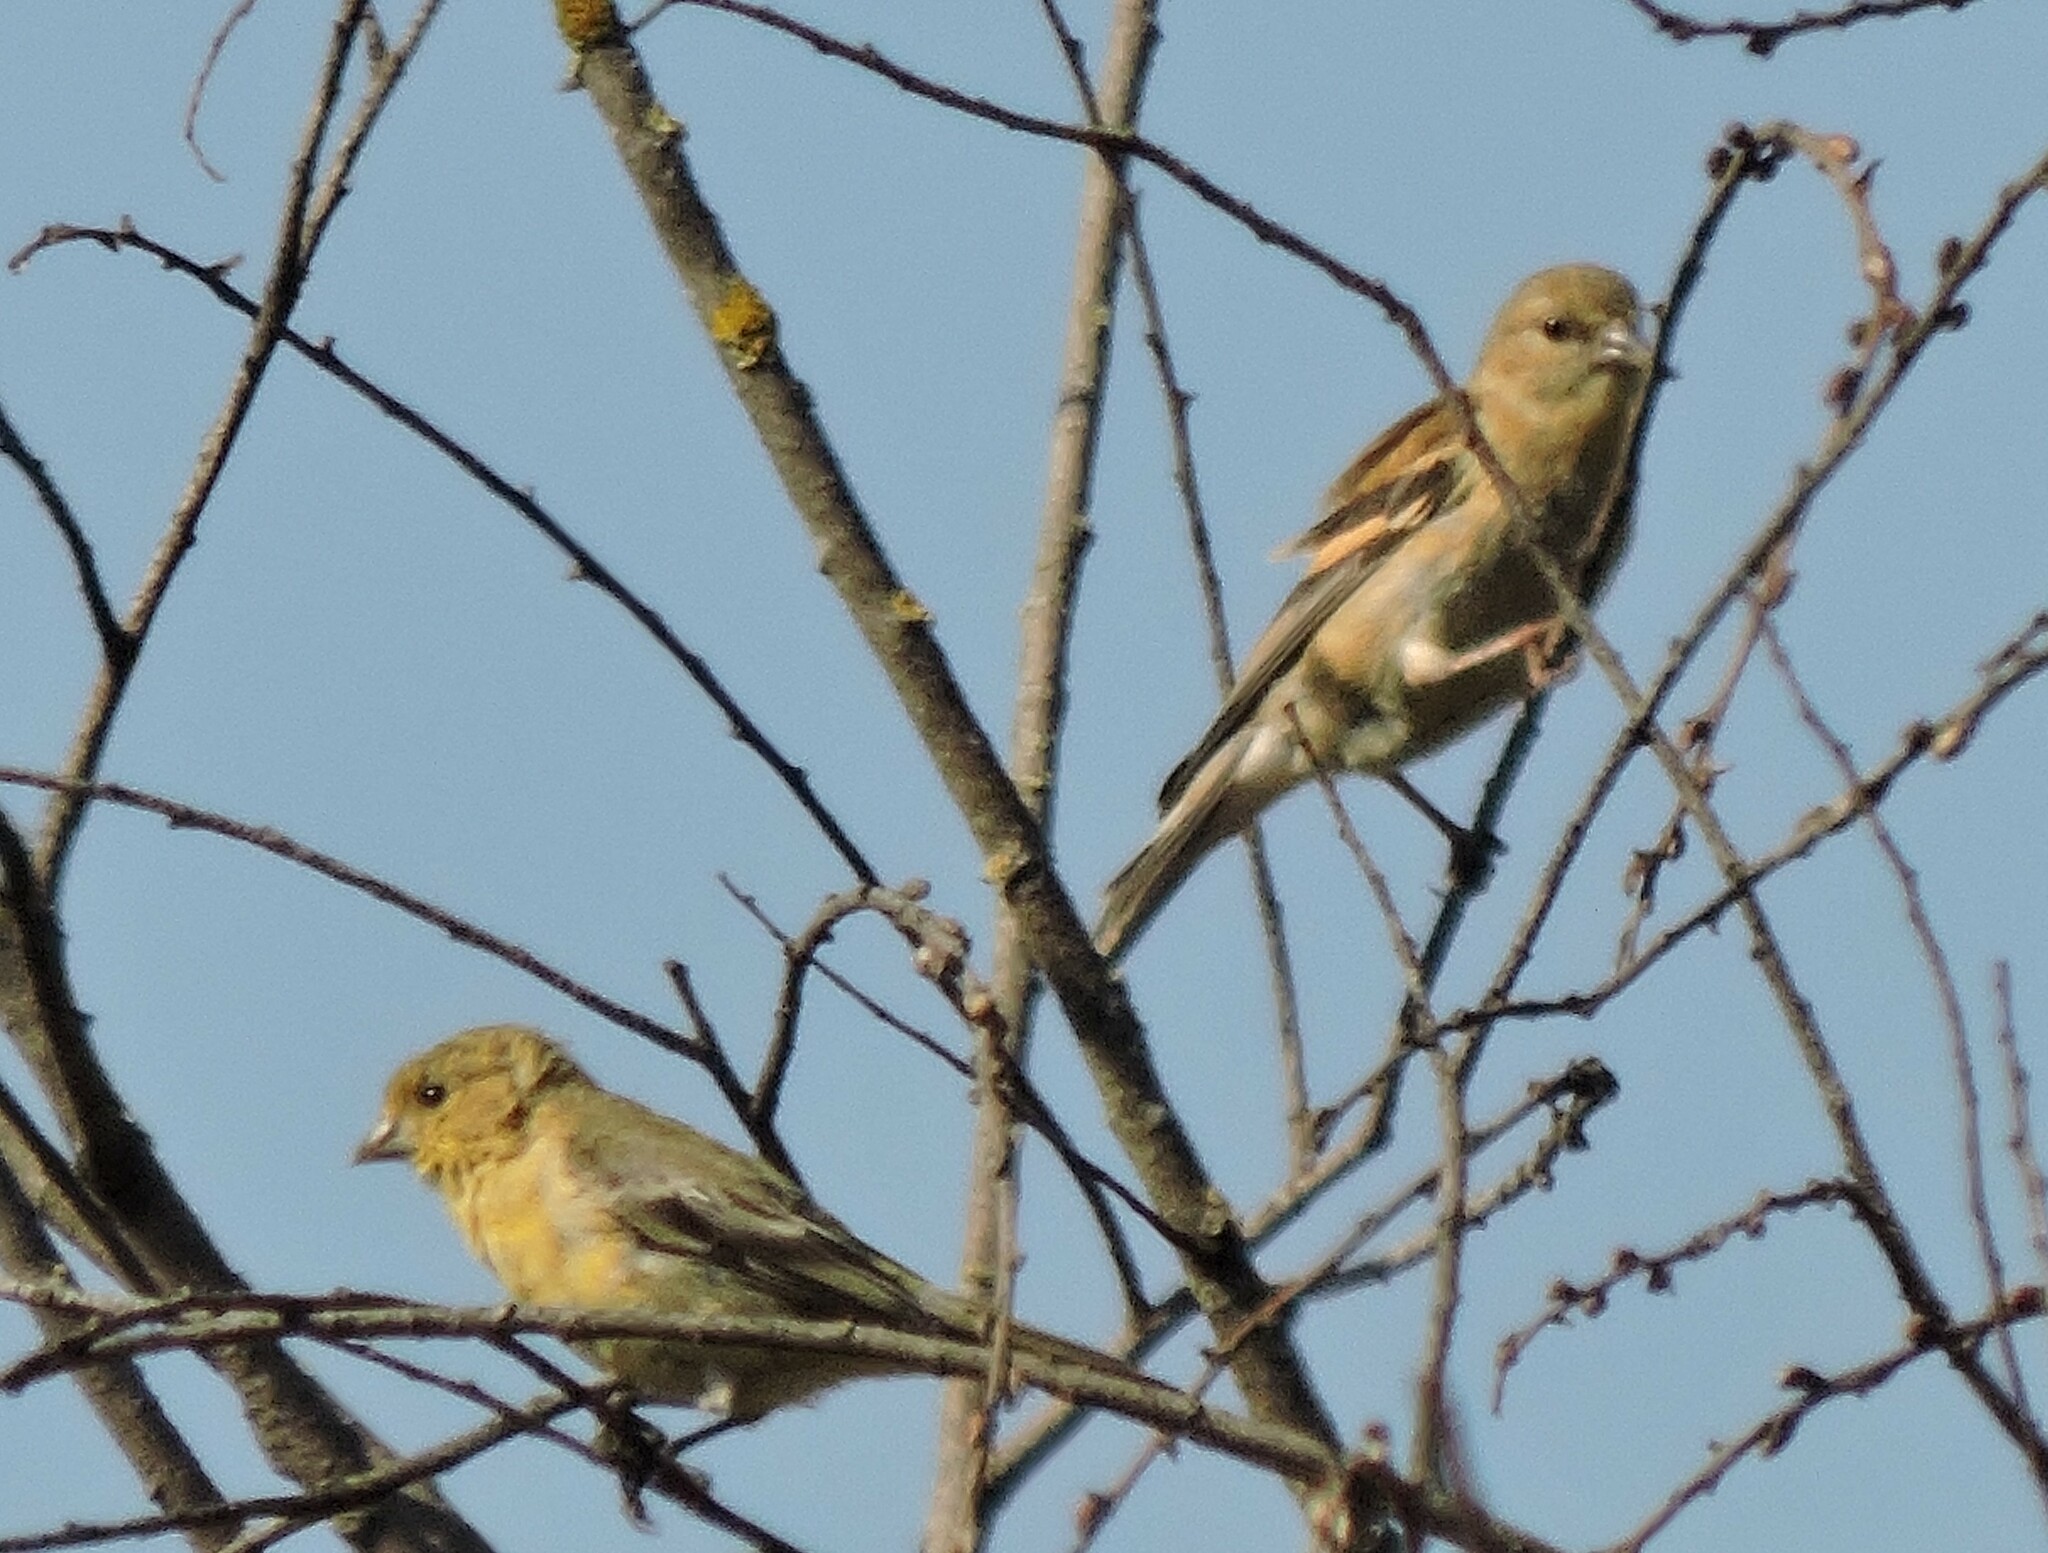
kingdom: Animalia
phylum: Chordata
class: Aves
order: Passeriformes
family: Fringillidae
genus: Spinus
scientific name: Spinus tristis
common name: American goldfinch
